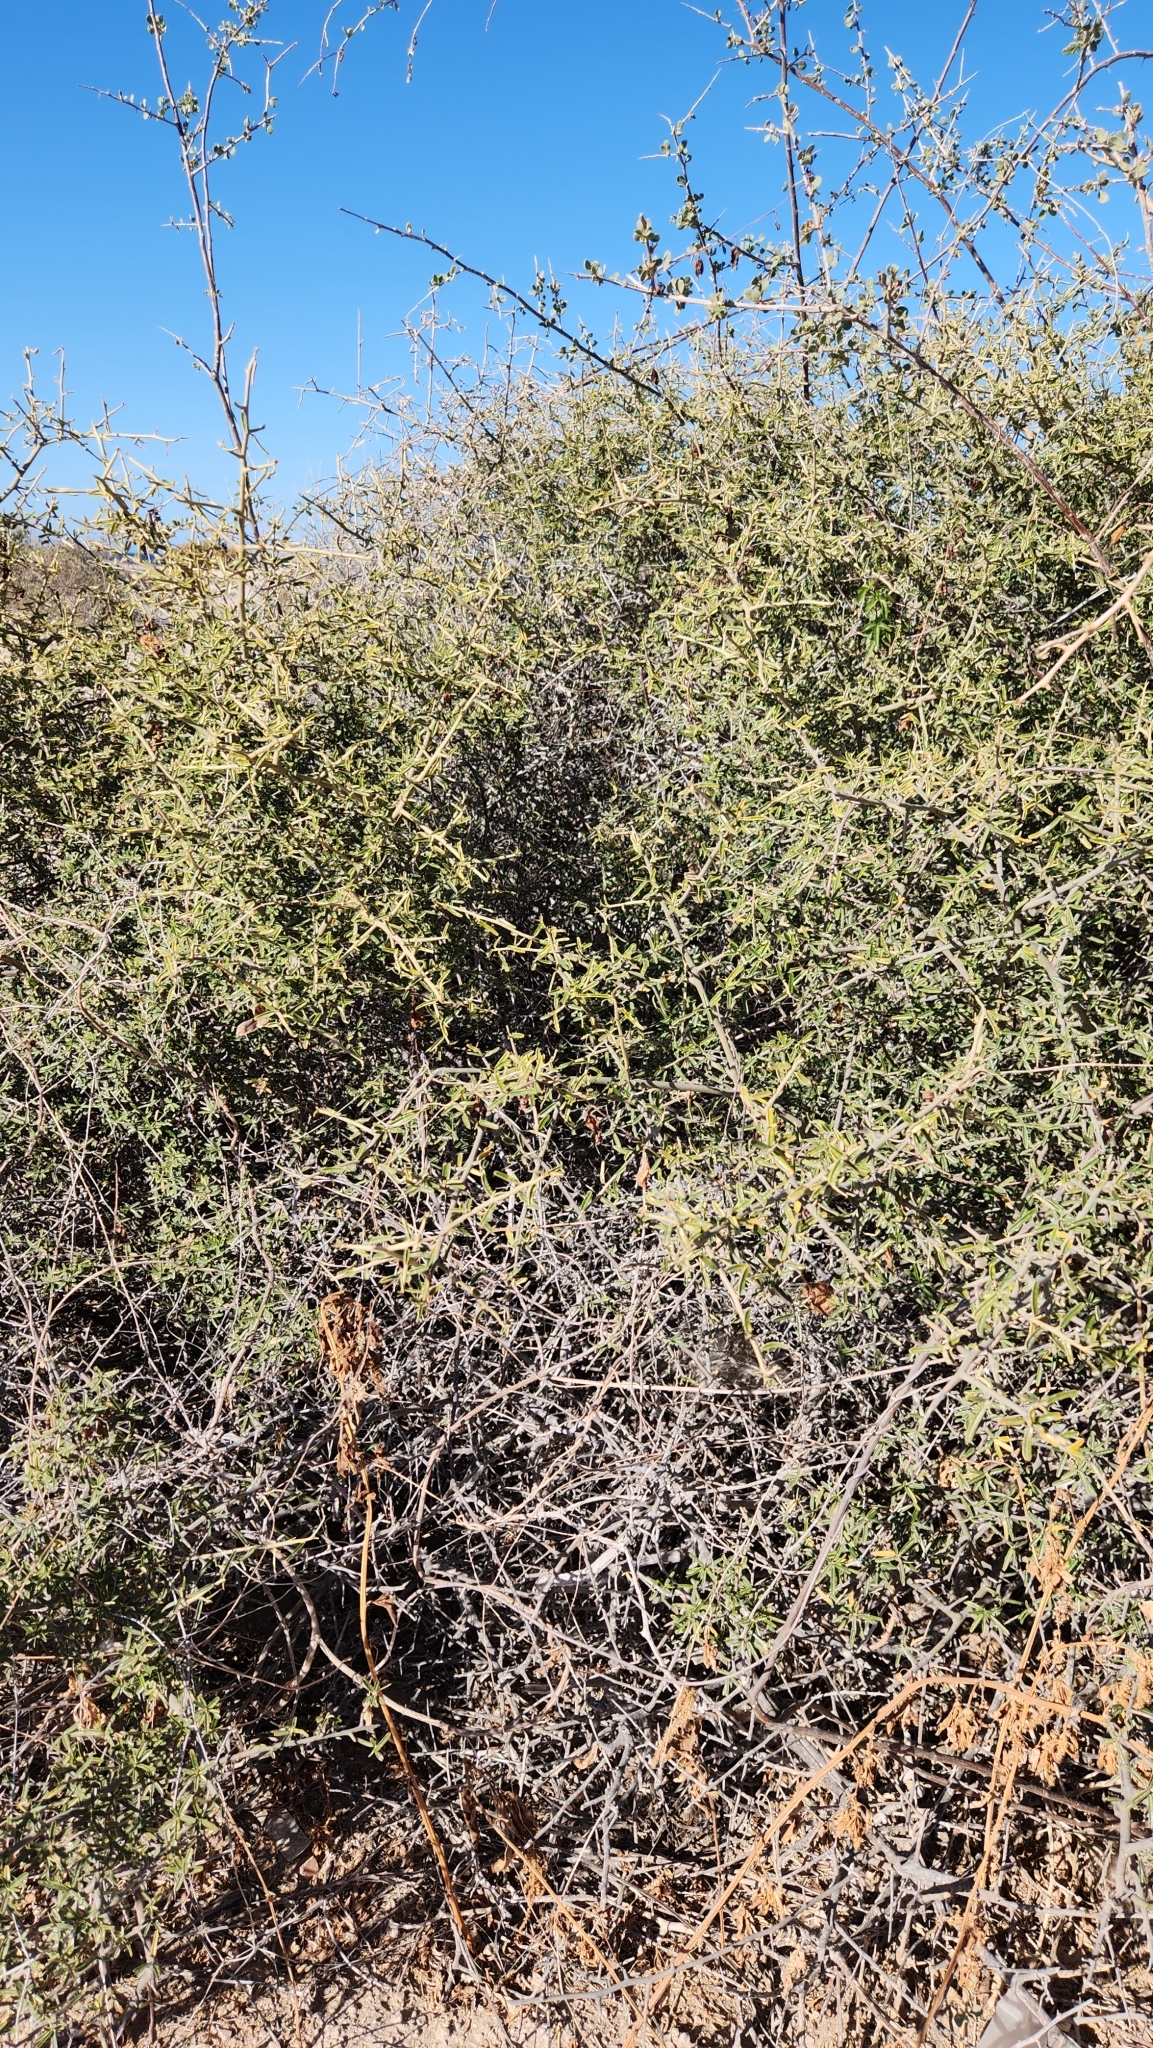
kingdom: Plantae
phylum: Tracheophyta
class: Magnoliopsida
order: Brassicales
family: Capparaceae
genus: Atamisquea
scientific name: Atamisquea emarginata
